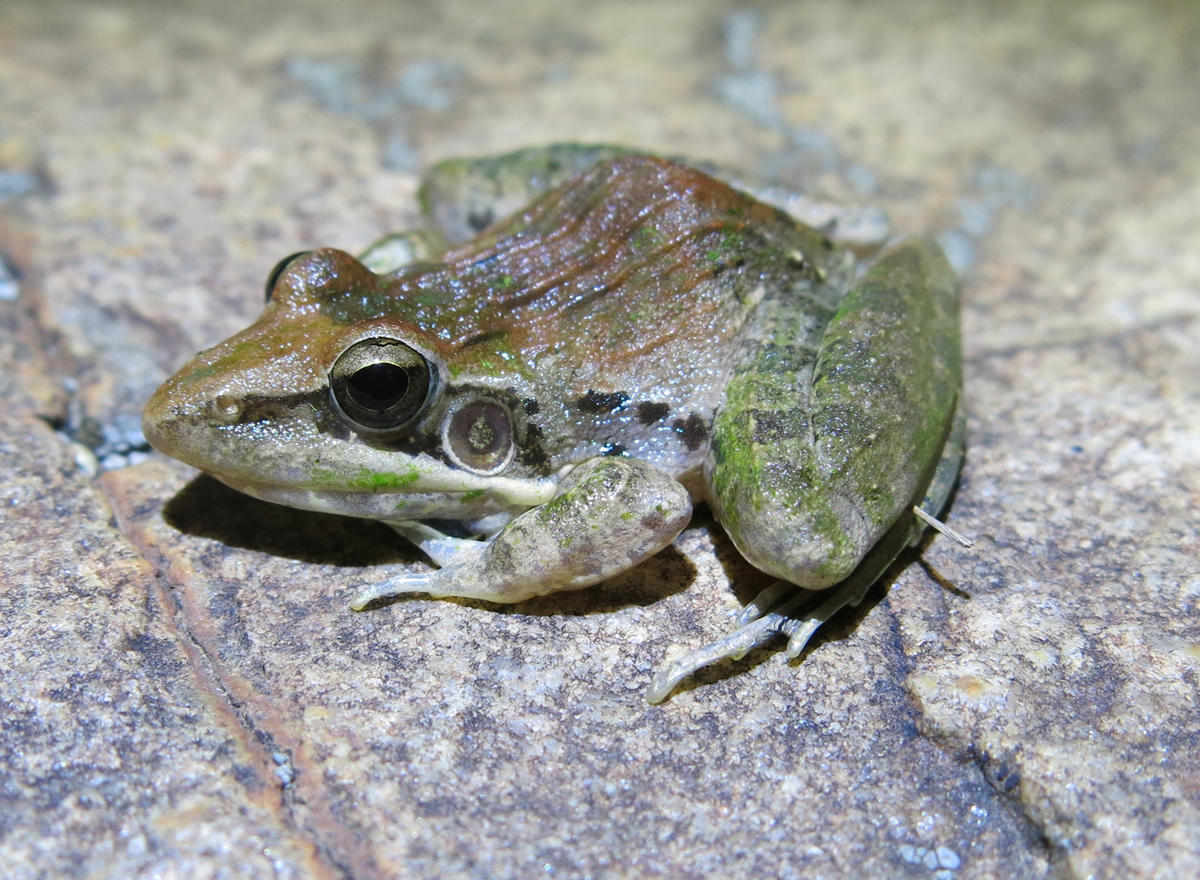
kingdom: Animalia
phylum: Chordata
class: Amphibia
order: Anura
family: Ptychadenidae
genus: Ptychadena
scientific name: Ptychadena oxyrhynchus
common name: Sharp-nosed ridged frog
